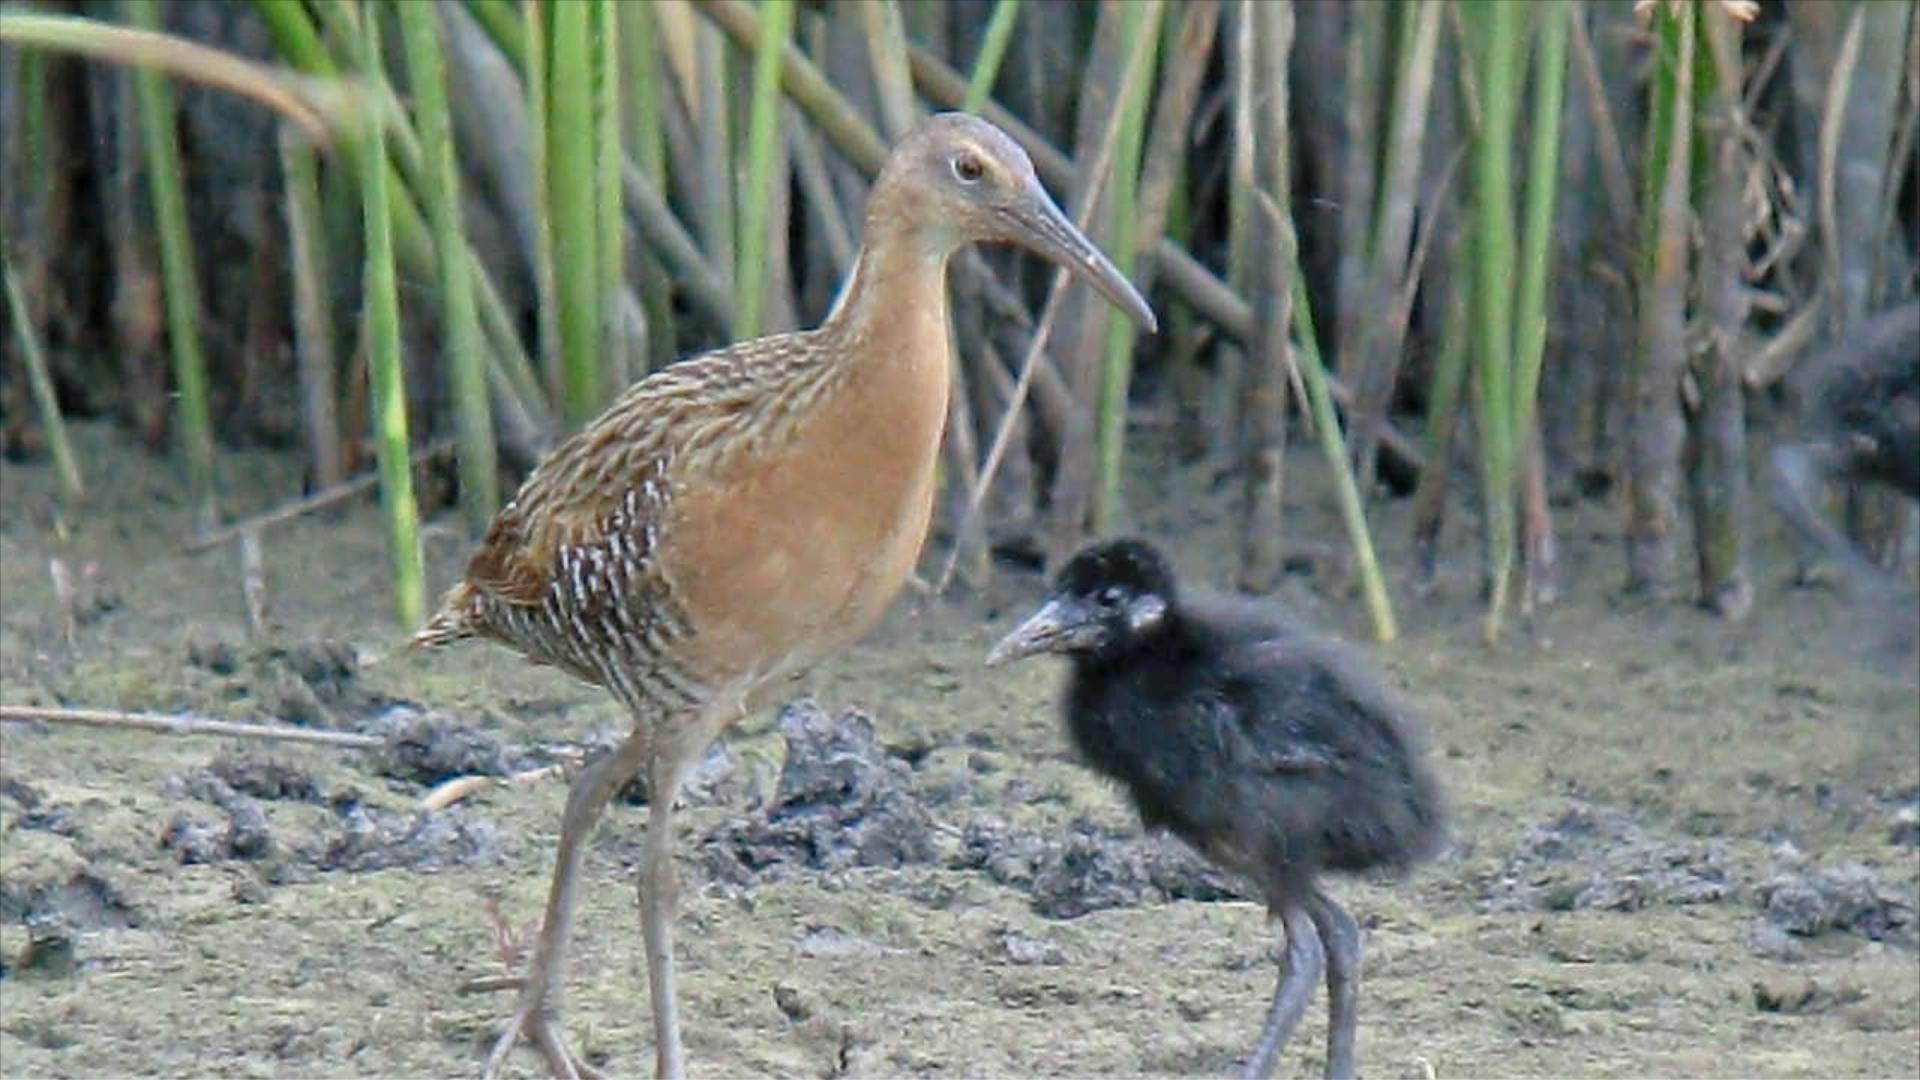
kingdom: Animalia
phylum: Chordata
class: Aves
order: Gruiformes
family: Rallidae
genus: Rallus
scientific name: Rallus elegans
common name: King rail
